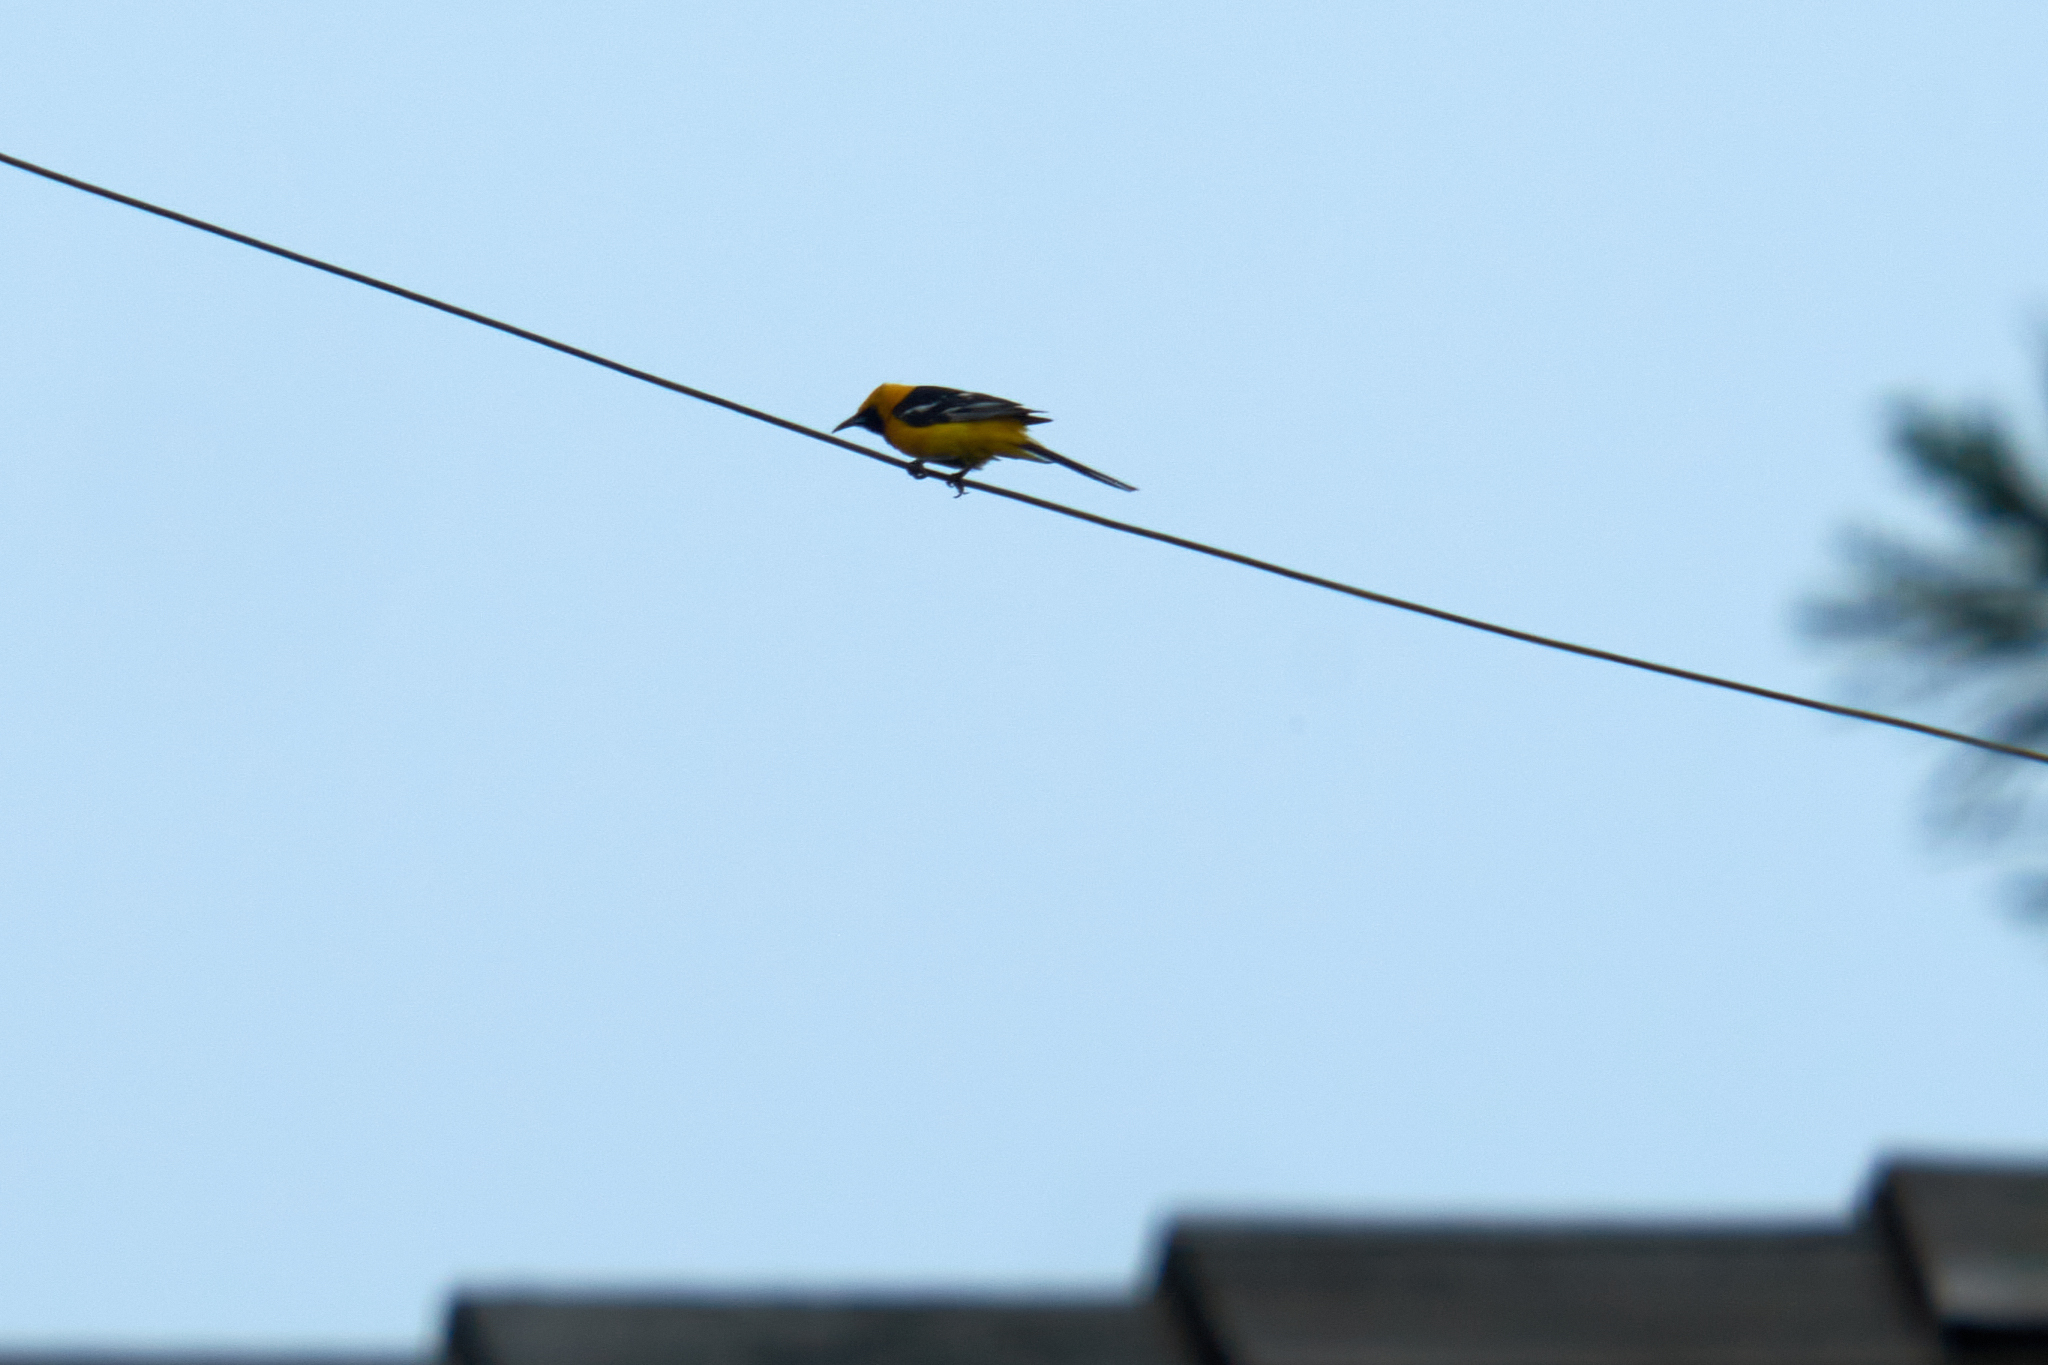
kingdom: Animalia
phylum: Chordata
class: Aves
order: Passeriformes
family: Icteridae
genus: Icterus
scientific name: Icterus cucullatus
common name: Hooded oriole
